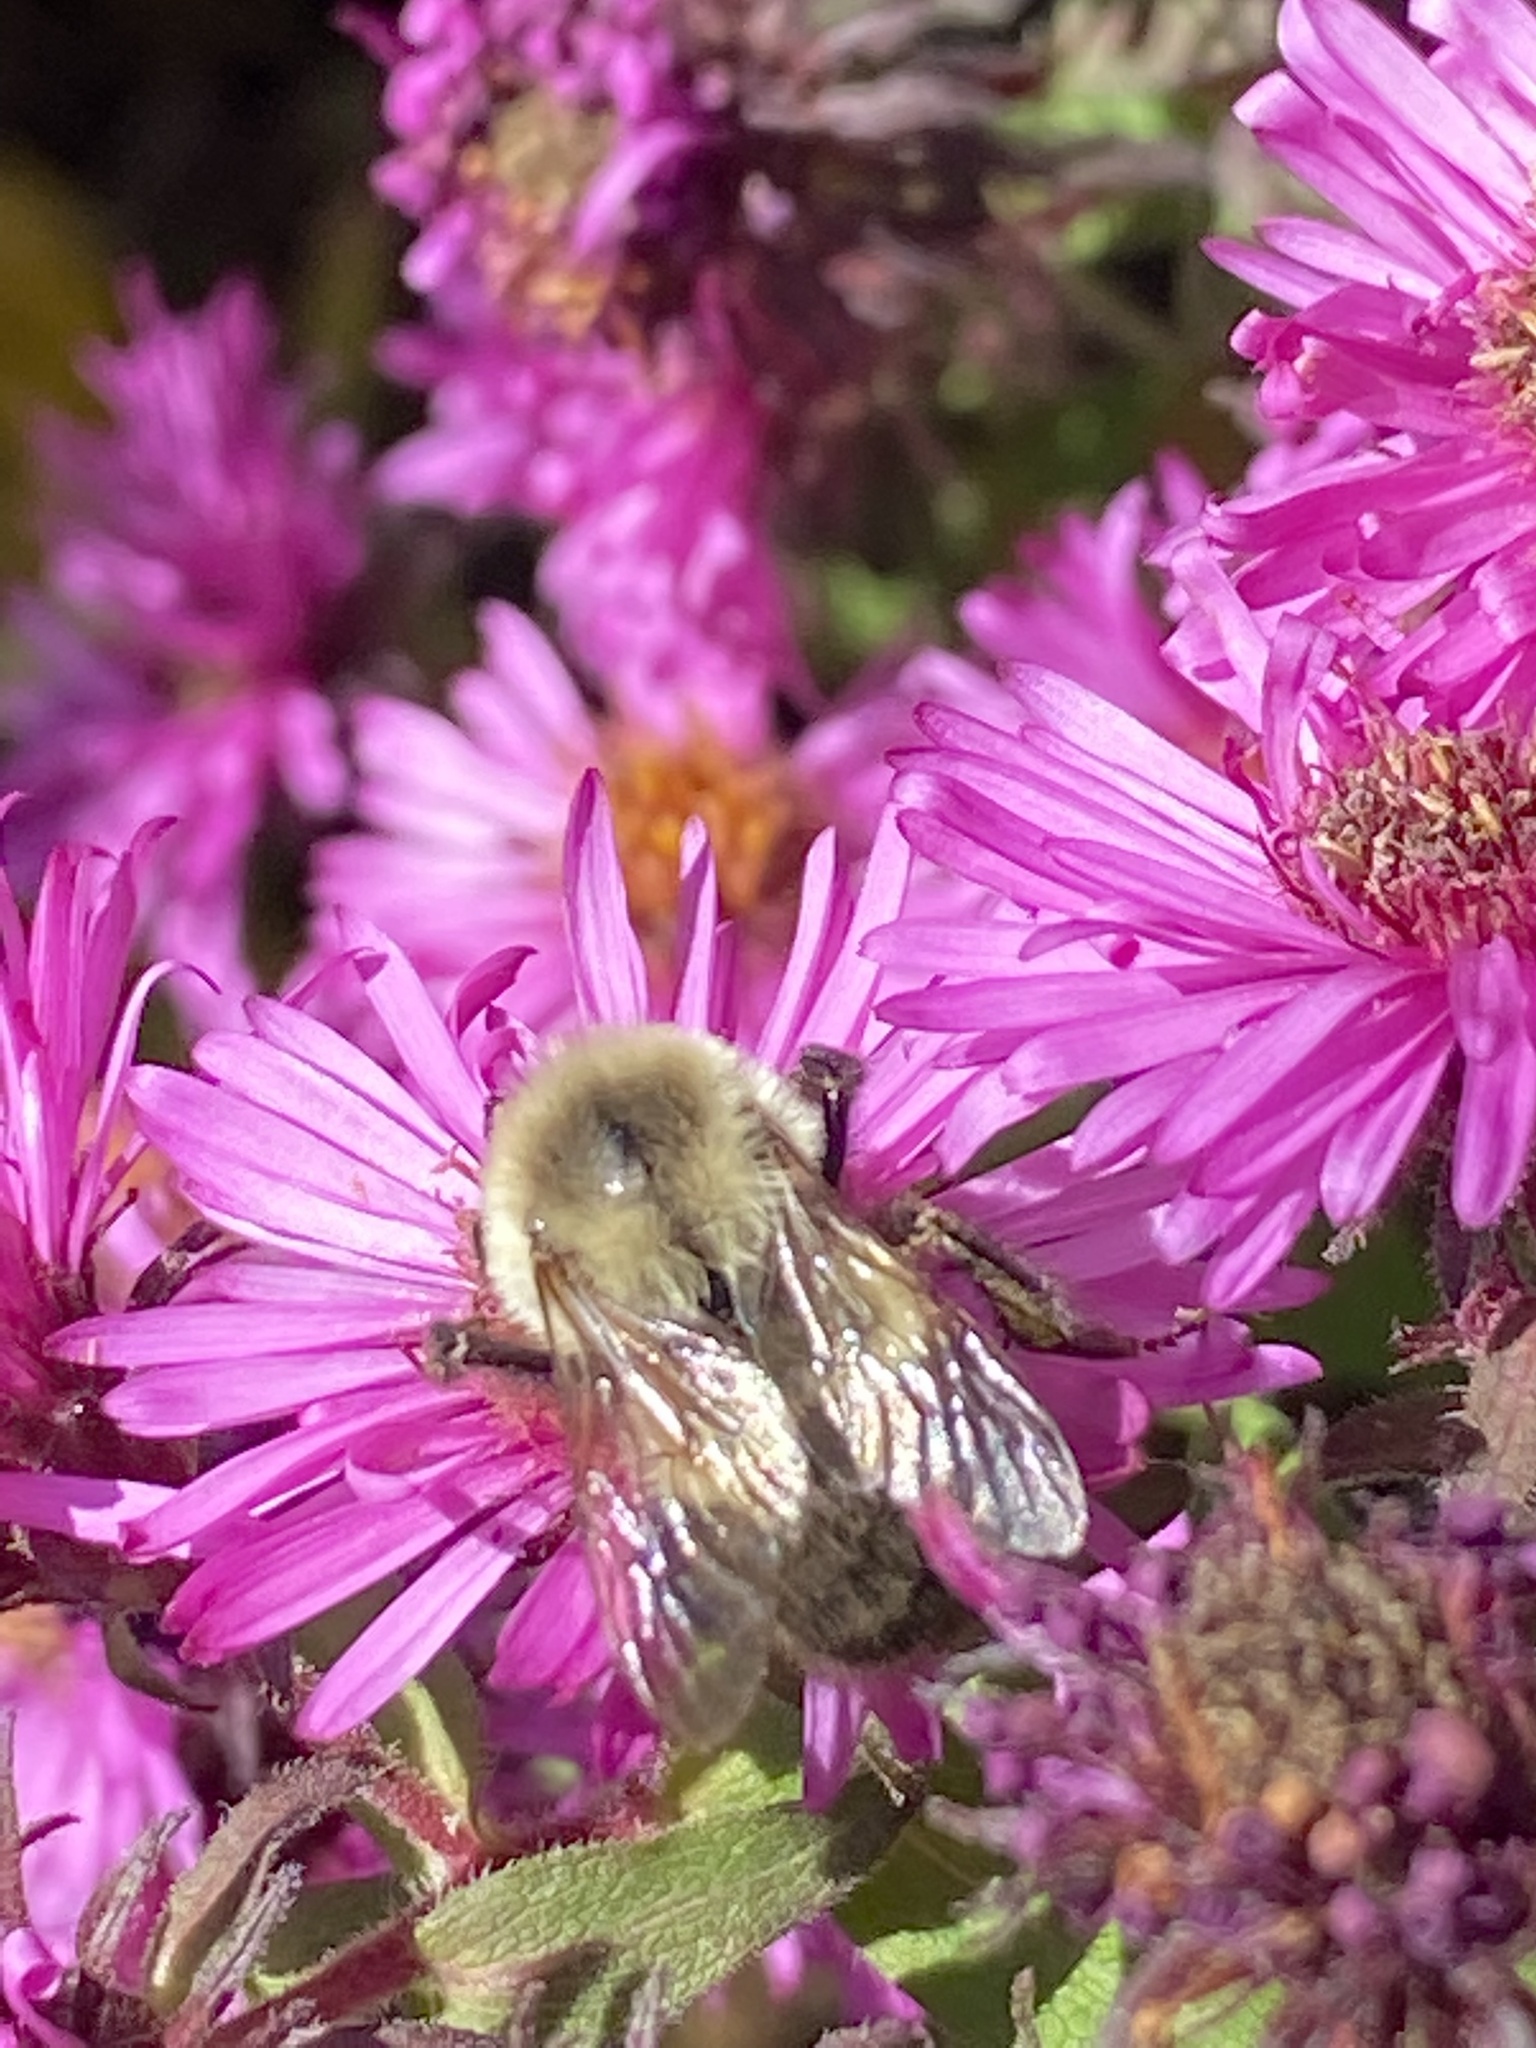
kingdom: Animalia
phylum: Arthropoda
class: Insecta
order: Hymenoptera
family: Apidae
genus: Bombus
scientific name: Bombus impatiens
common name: Common eastern bumble bee
